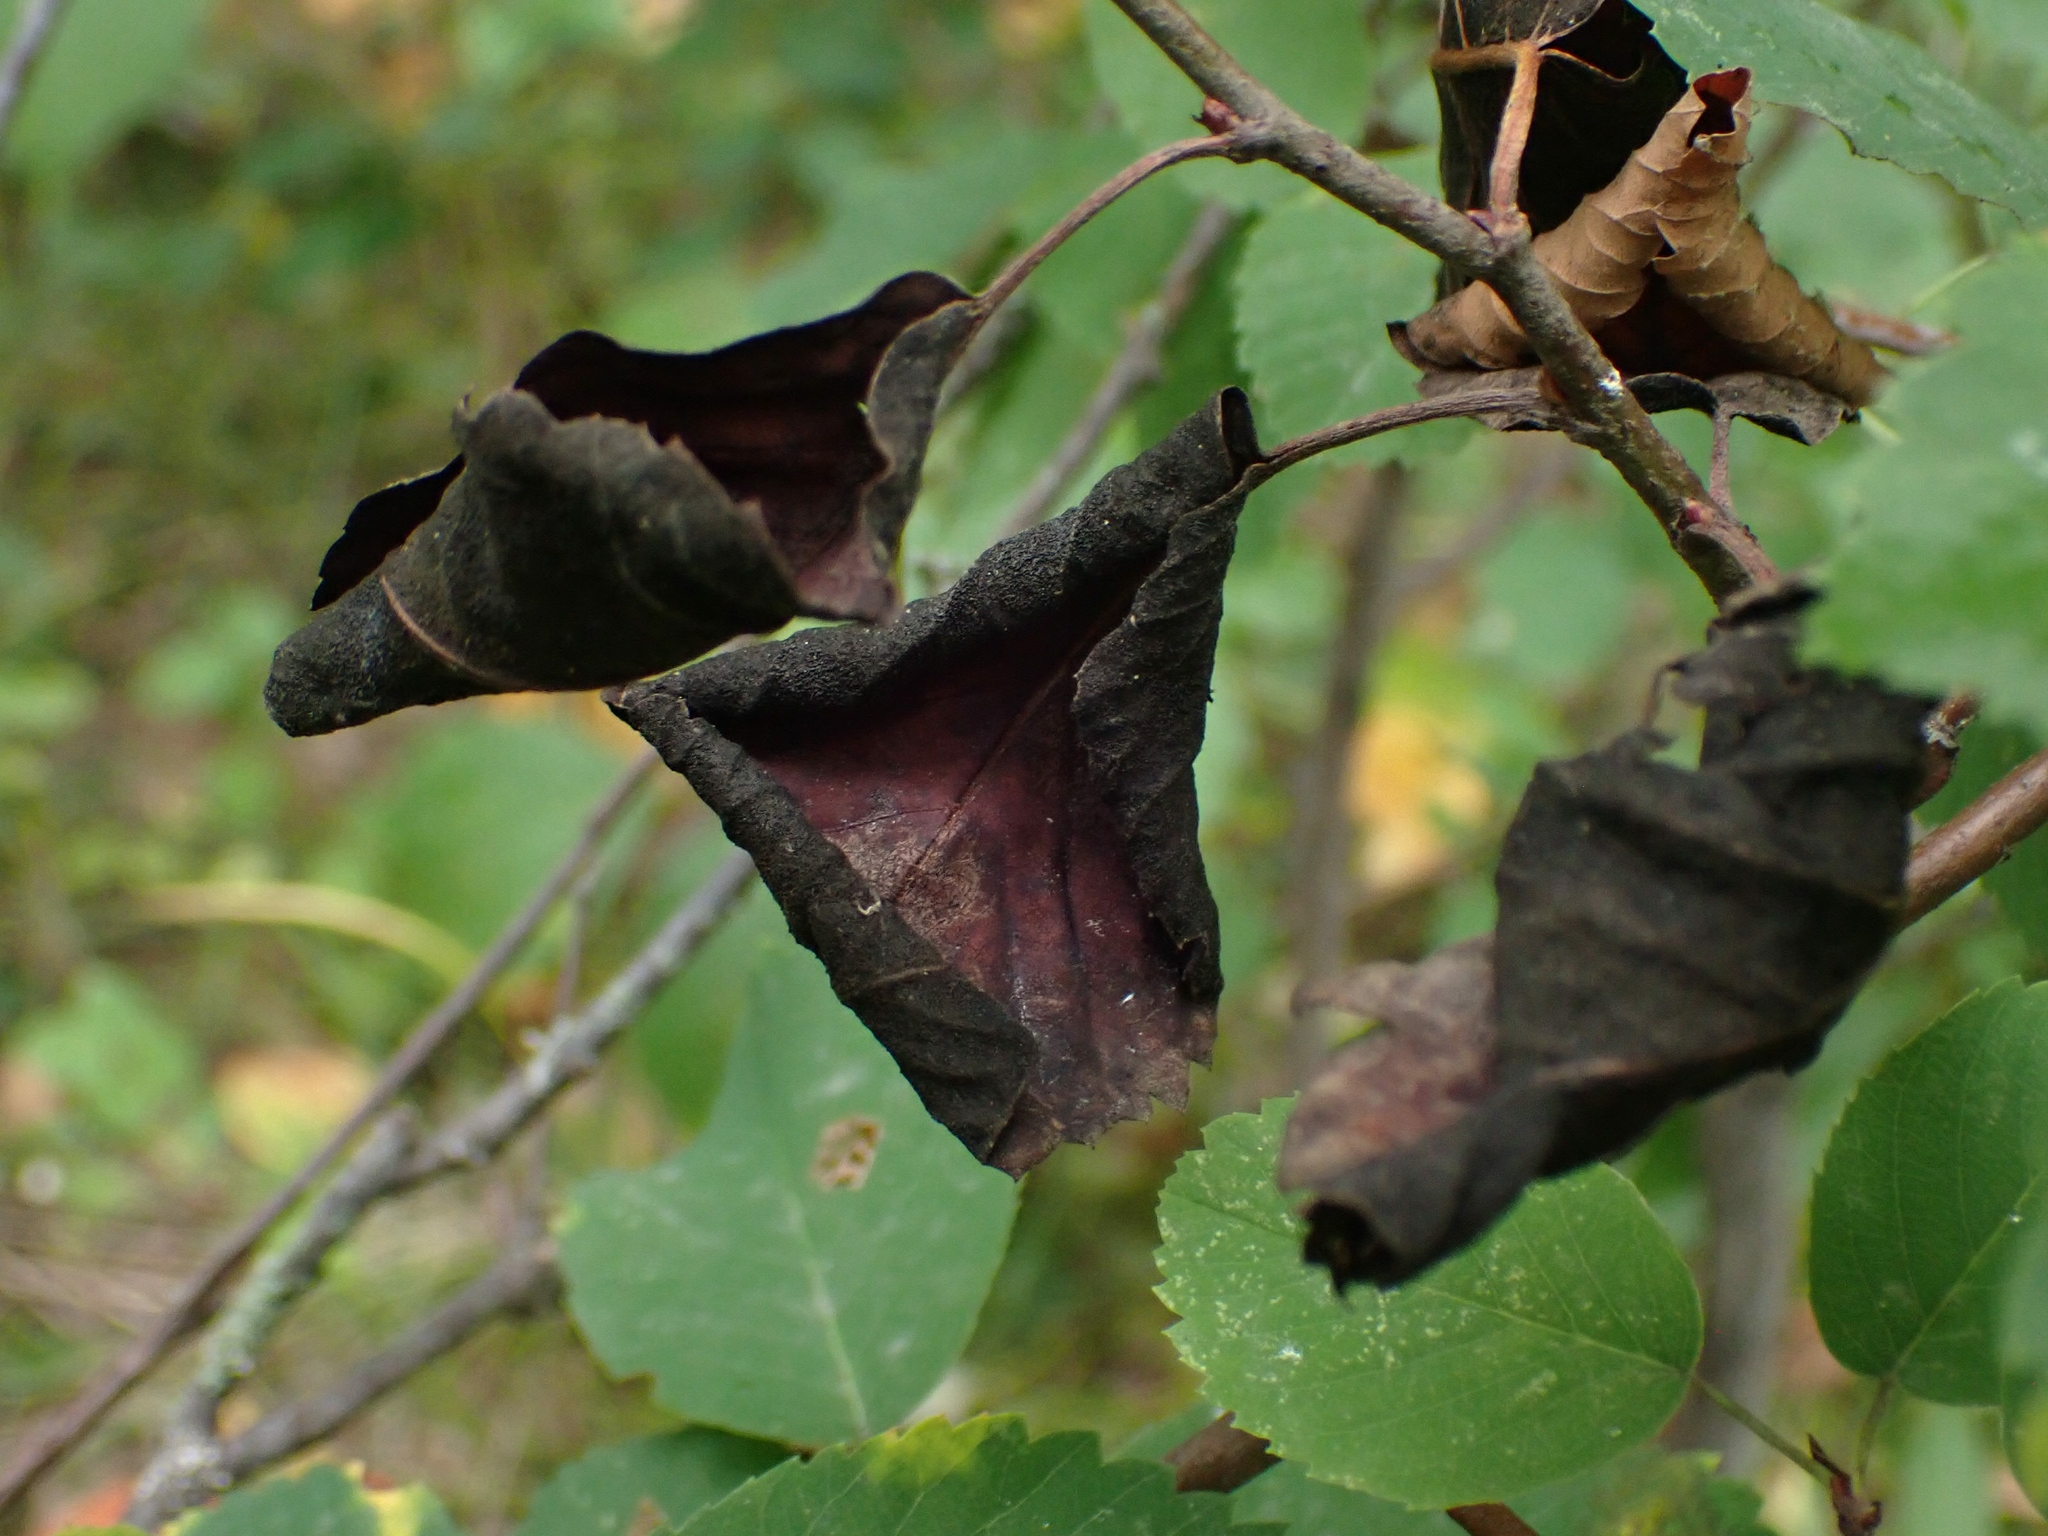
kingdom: Fungi
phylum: Ascomycota
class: Dothideomycetes
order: Venturiales
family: Venturiaceae
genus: Apiosporina
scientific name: Apiosporina collinsii
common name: Black leaf
